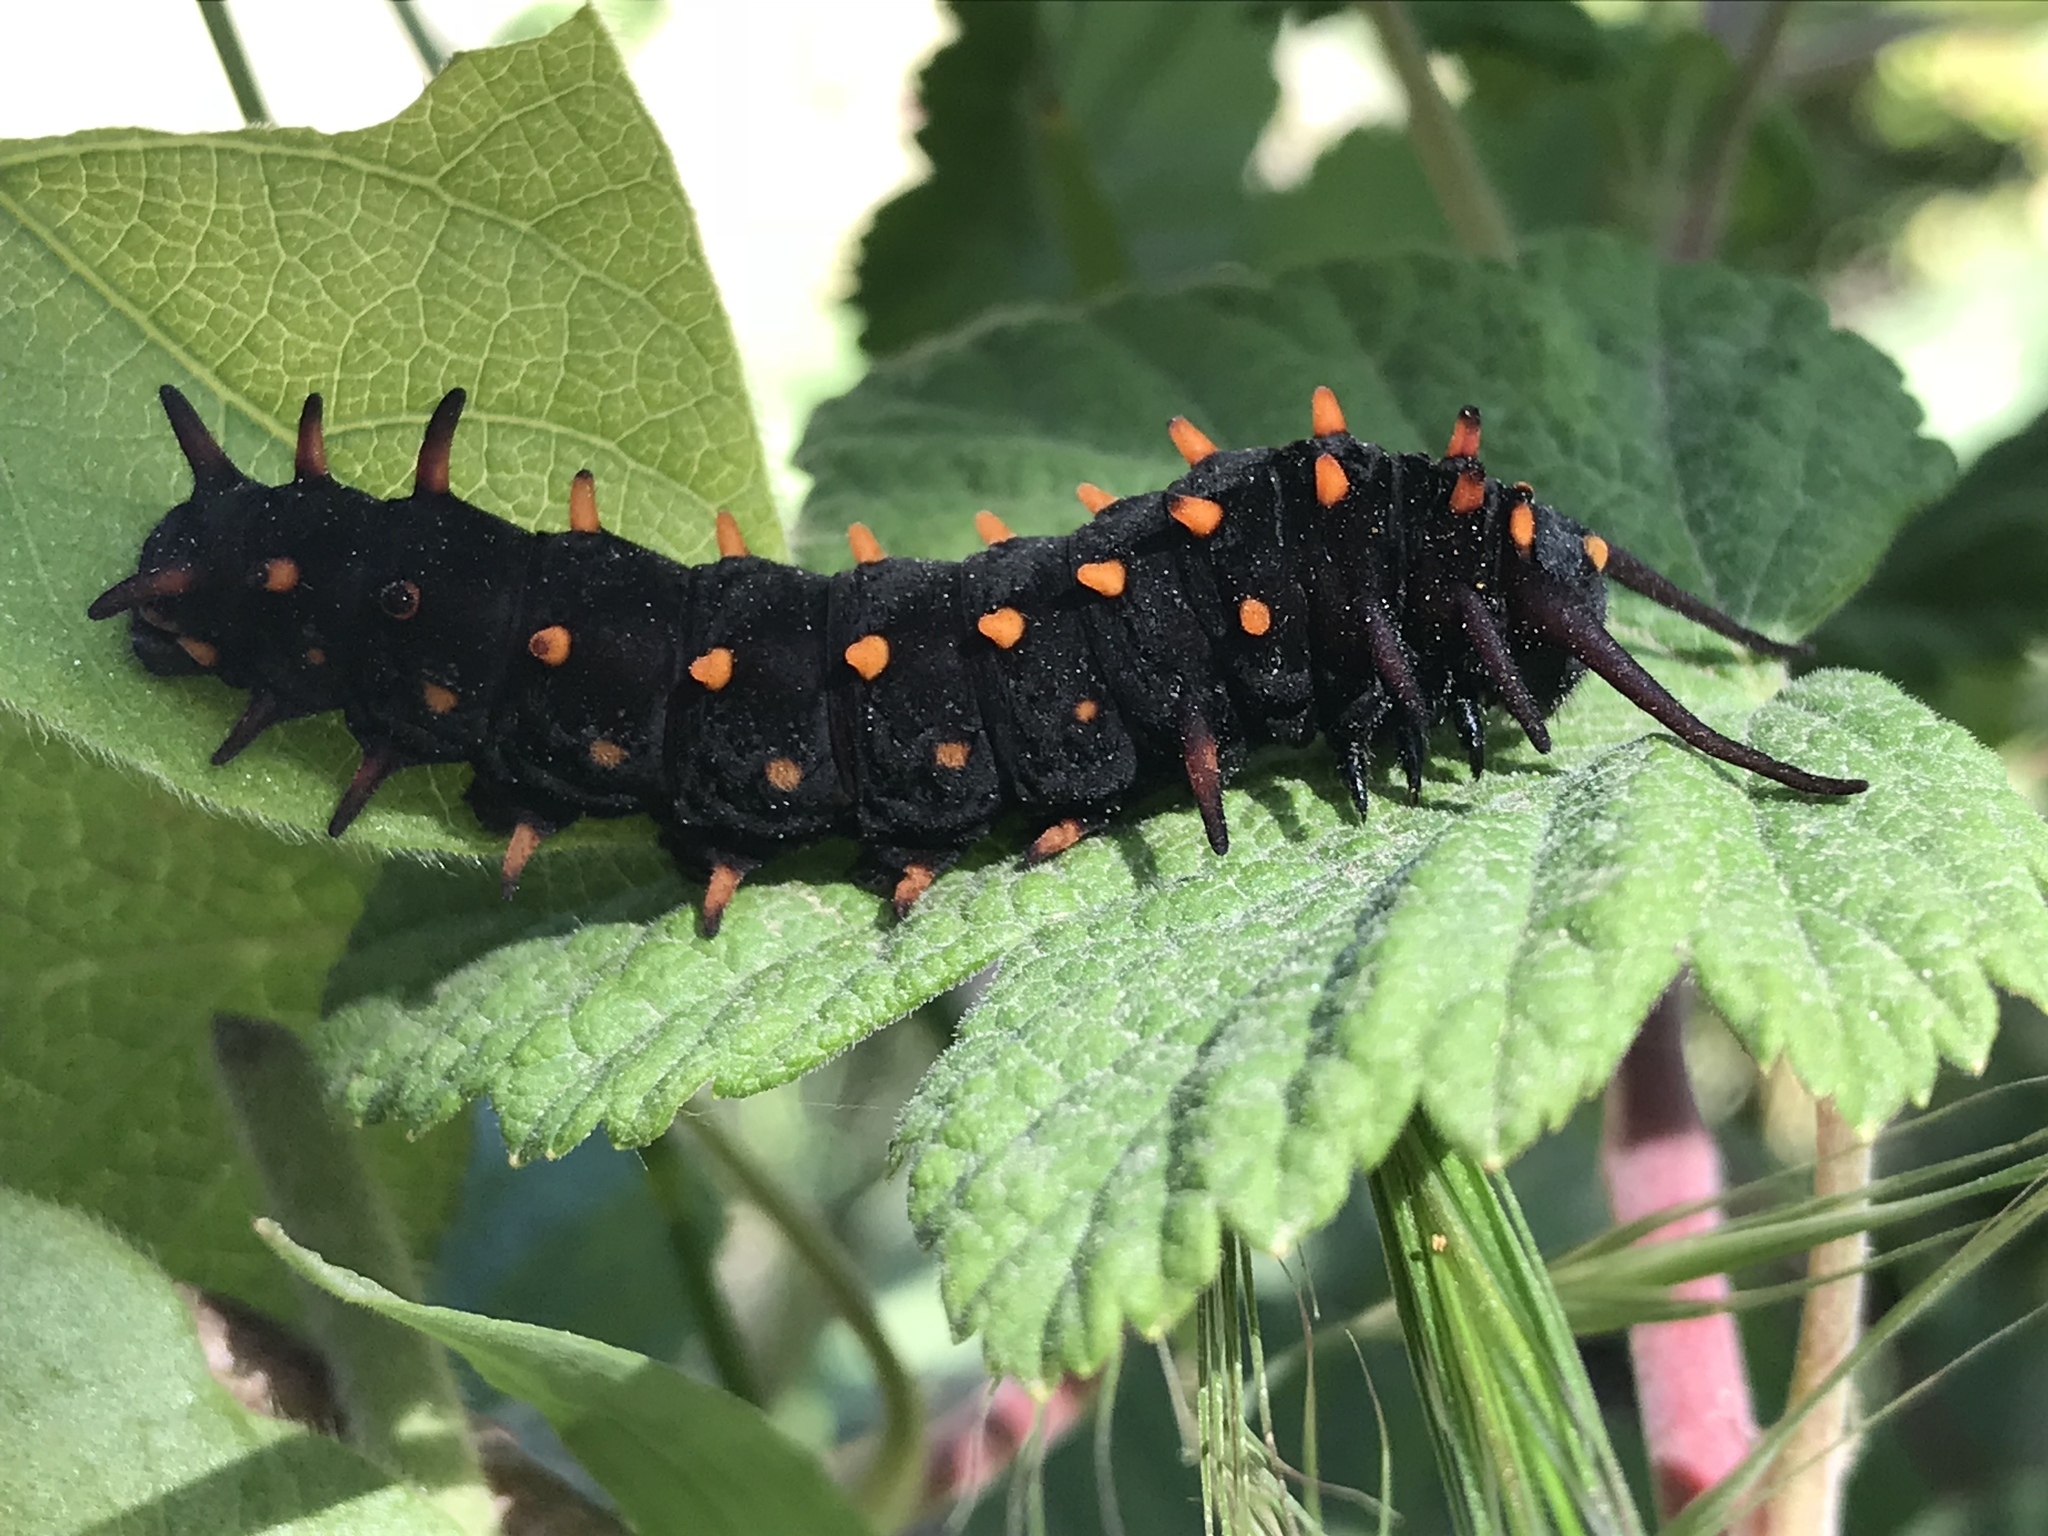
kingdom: Animalia
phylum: Arthropoda
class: Insecta
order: Lepidoptera
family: Papilionidae
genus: Battus
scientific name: Battus philenor
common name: Pipevine swallowtail
